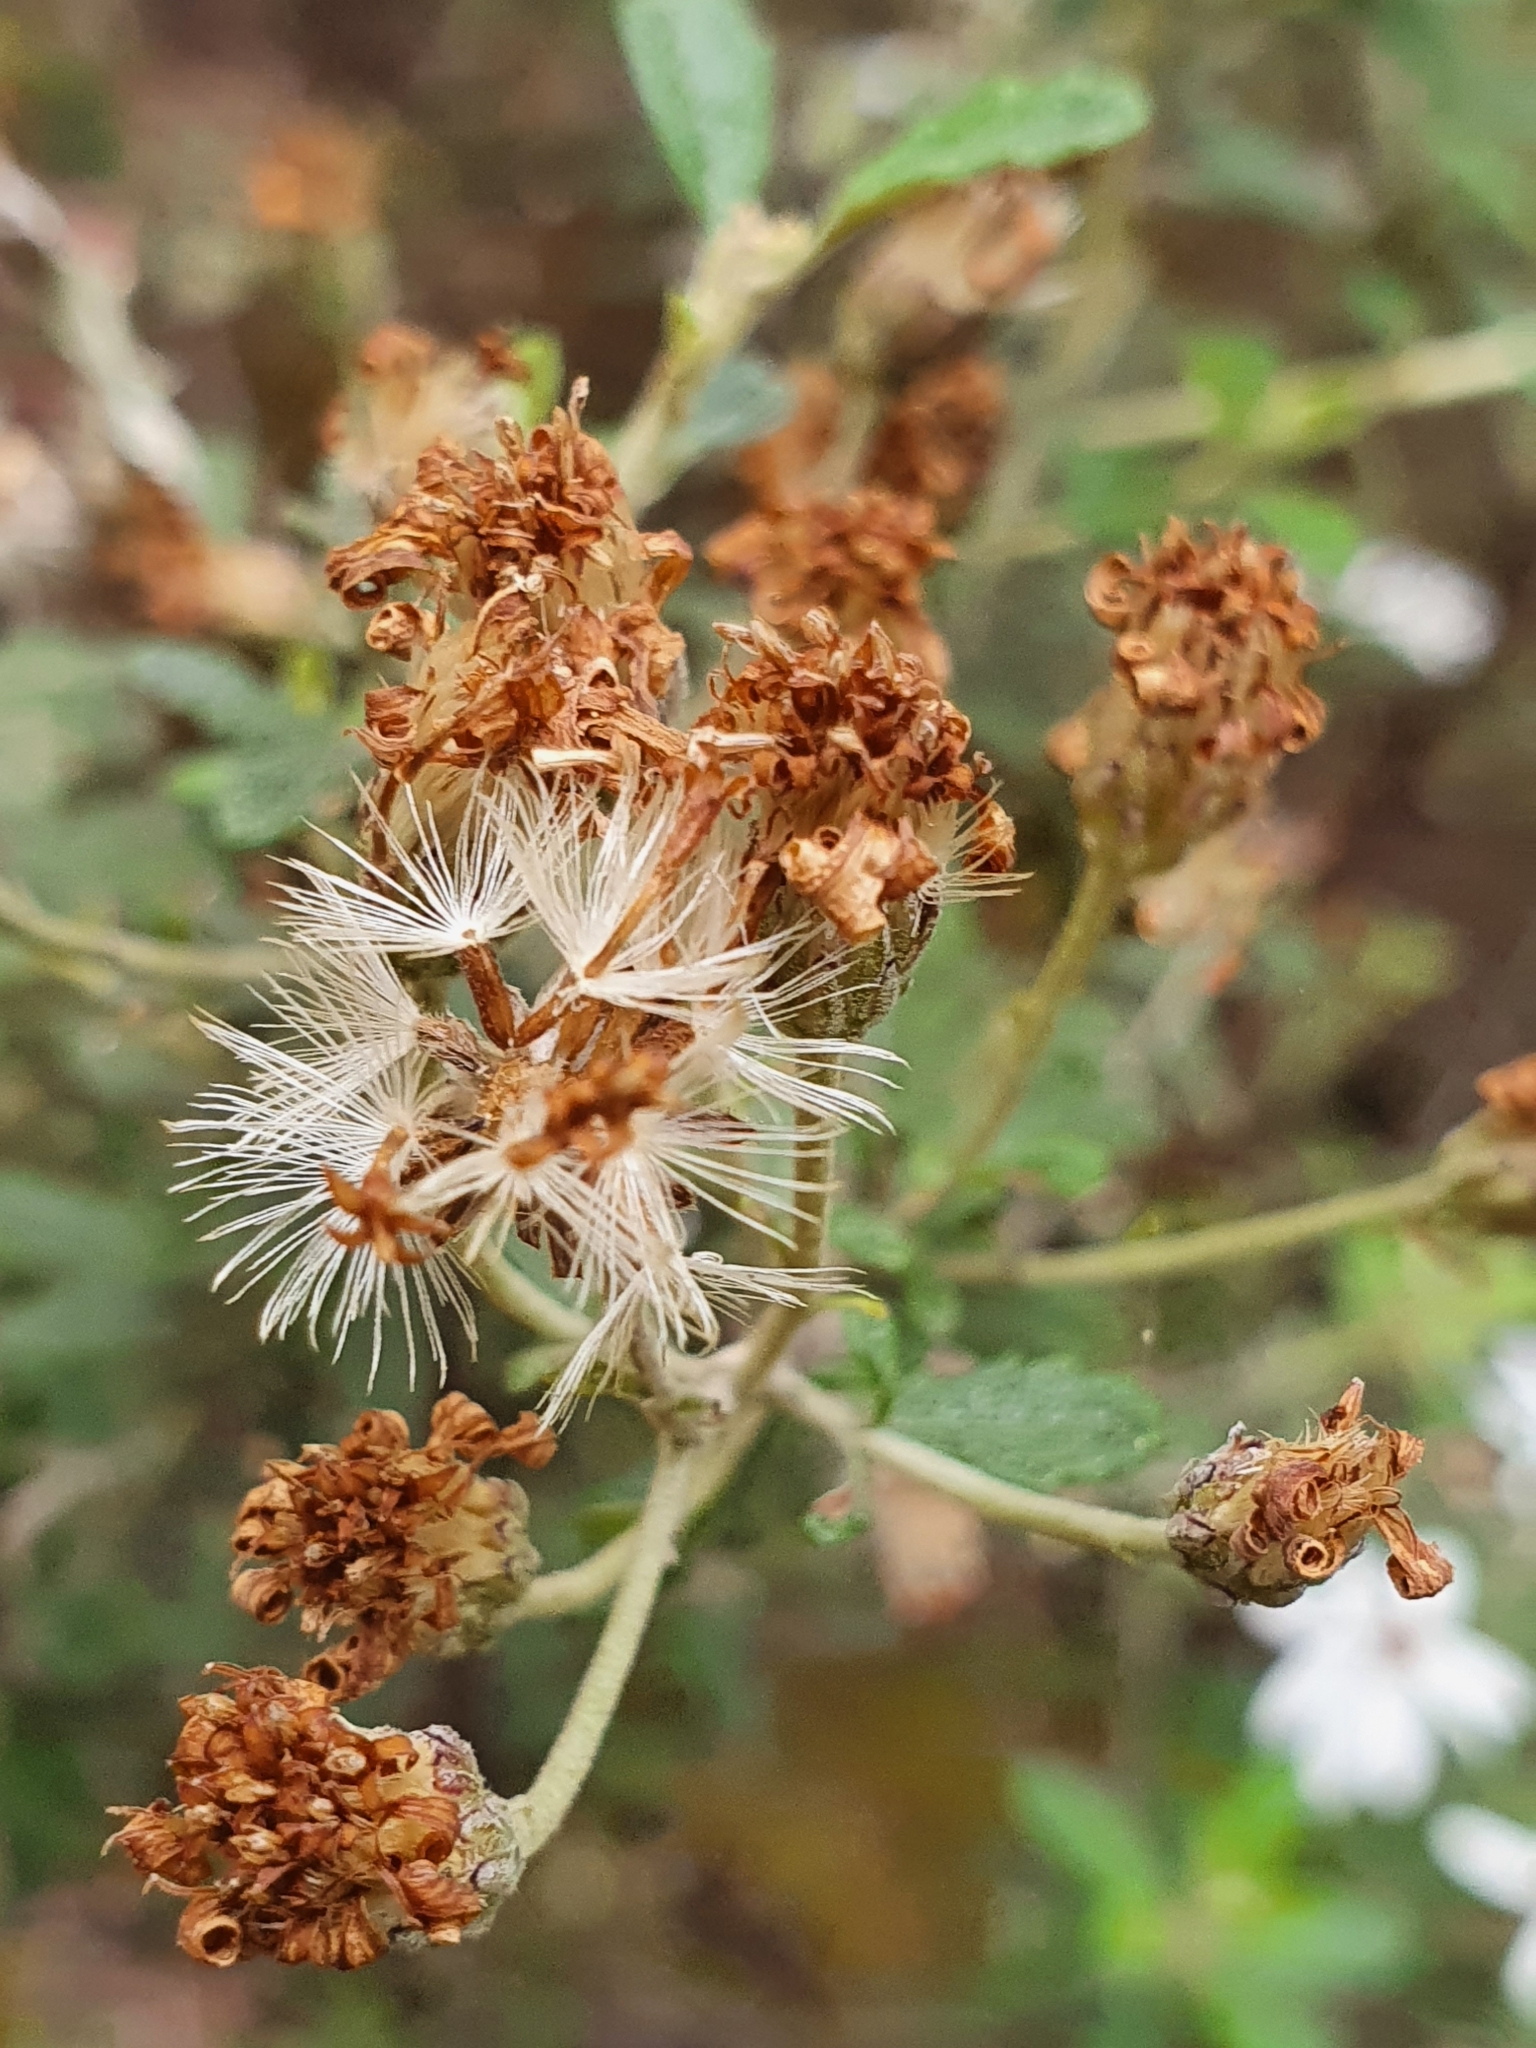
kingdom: Plantae
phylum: Tracheophyta
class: Magnoliopsida
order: Asterales
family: Asteraceae
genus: Olearia
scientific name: Olearia phlogopappa
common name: Alpine daisybush
